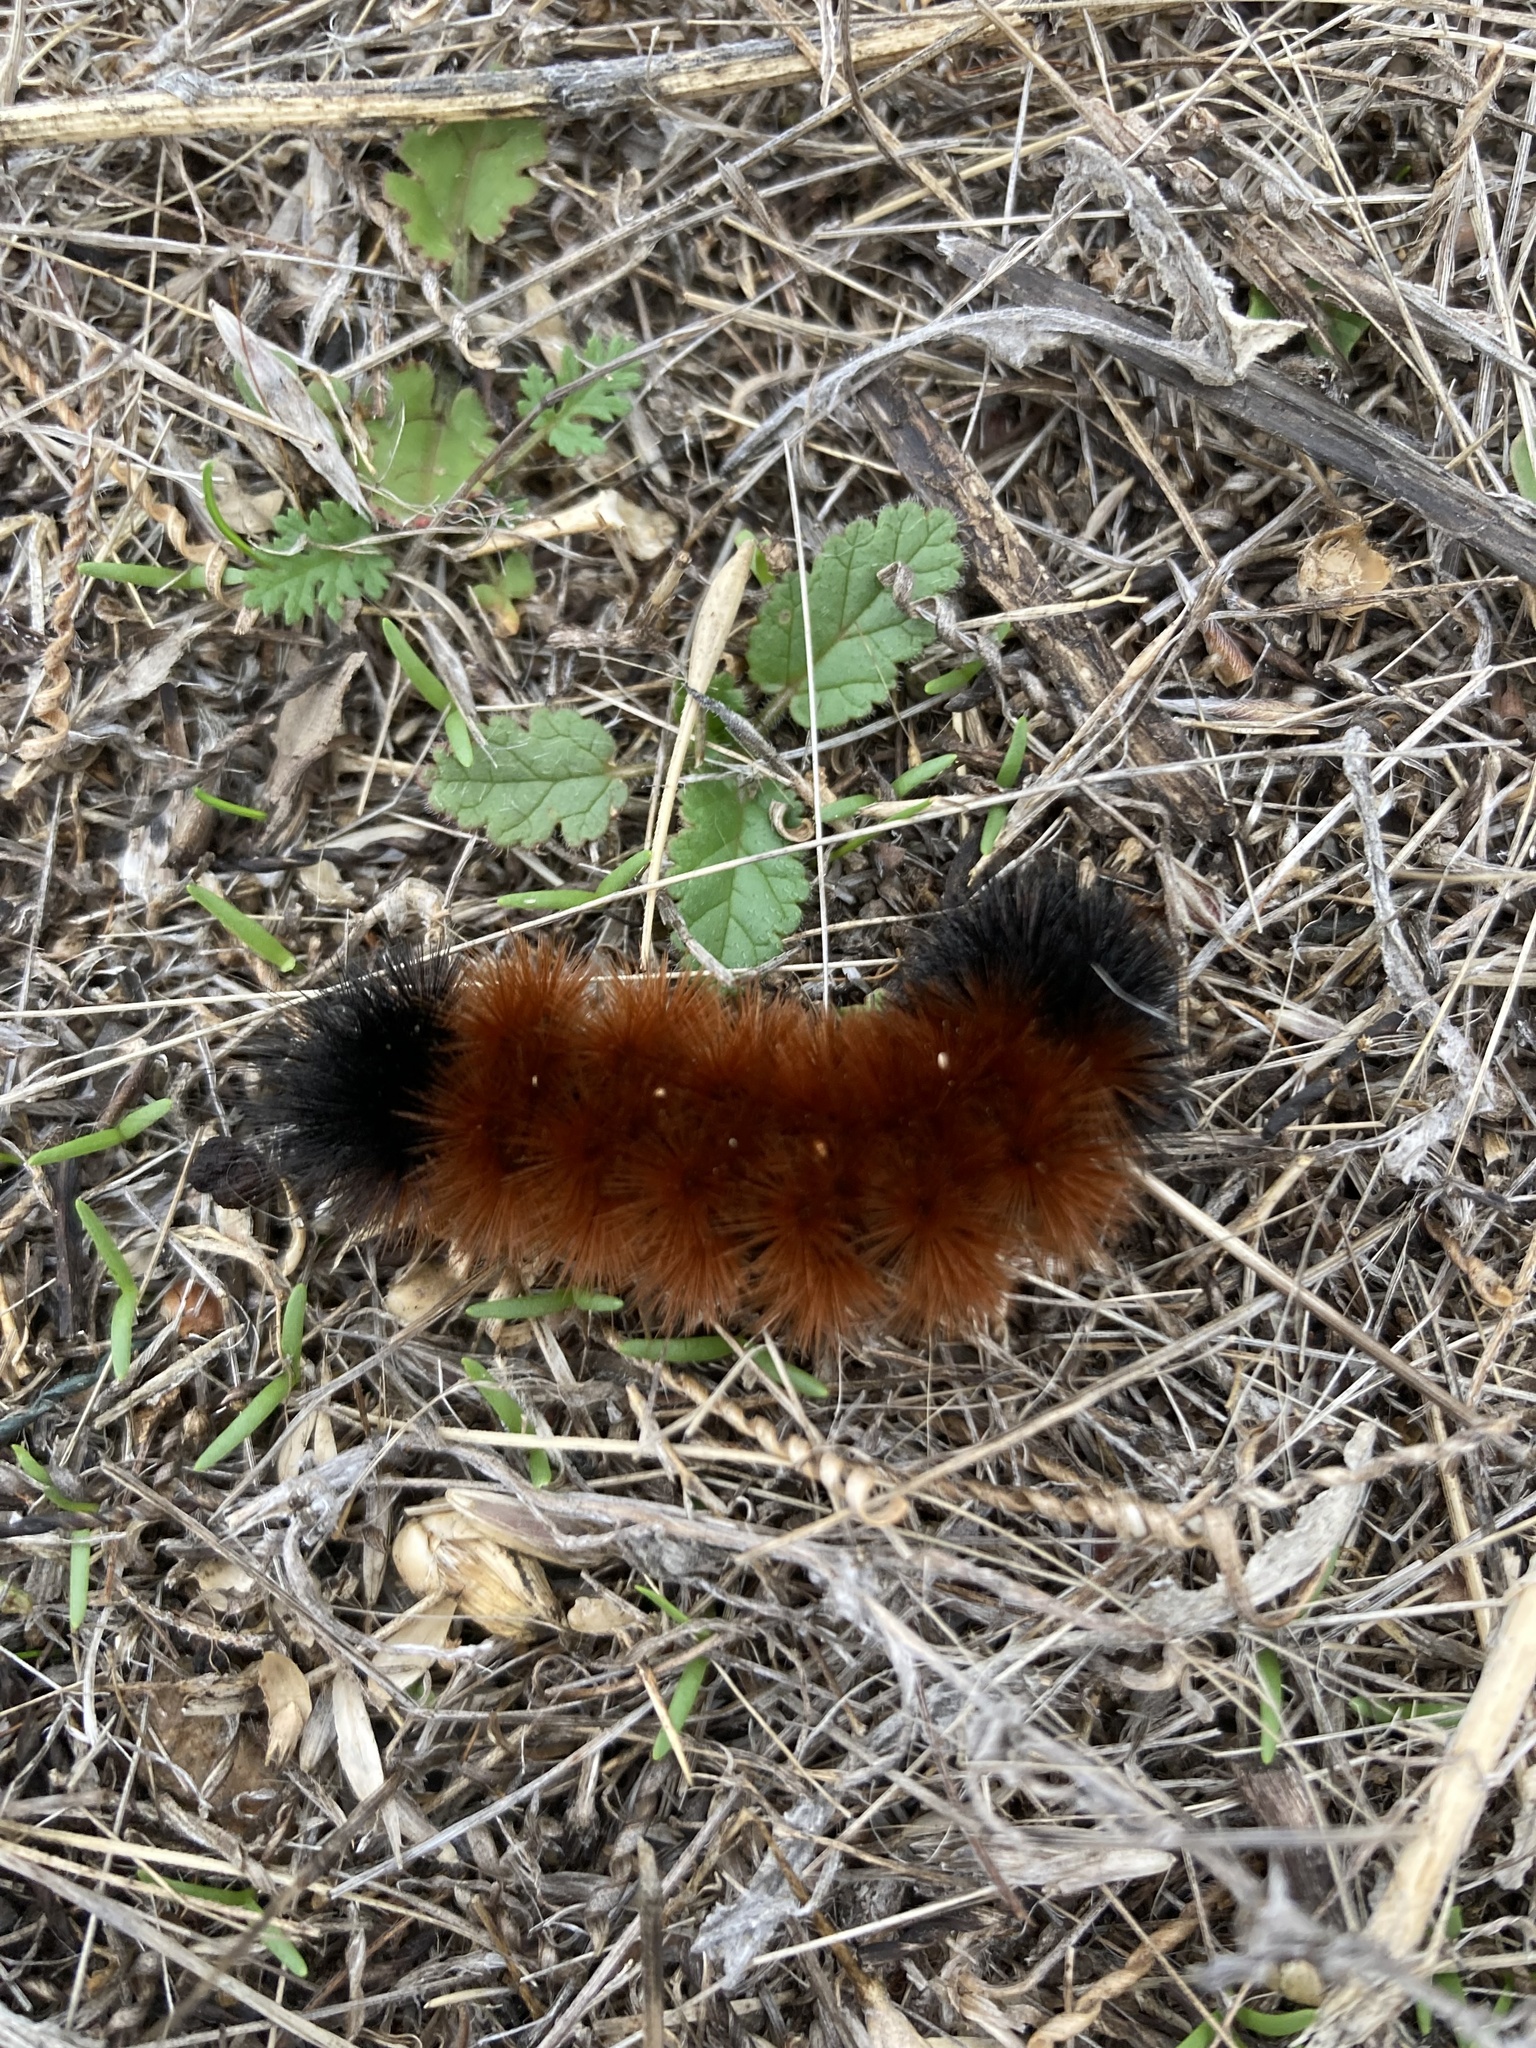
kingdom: Animalia
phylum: Arthropoda
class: Insecta
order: Lepidoptera
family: Erebidae
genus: Pyrrharctia
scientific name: Pyrrharctia isabella
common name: Isabella tiger moth
